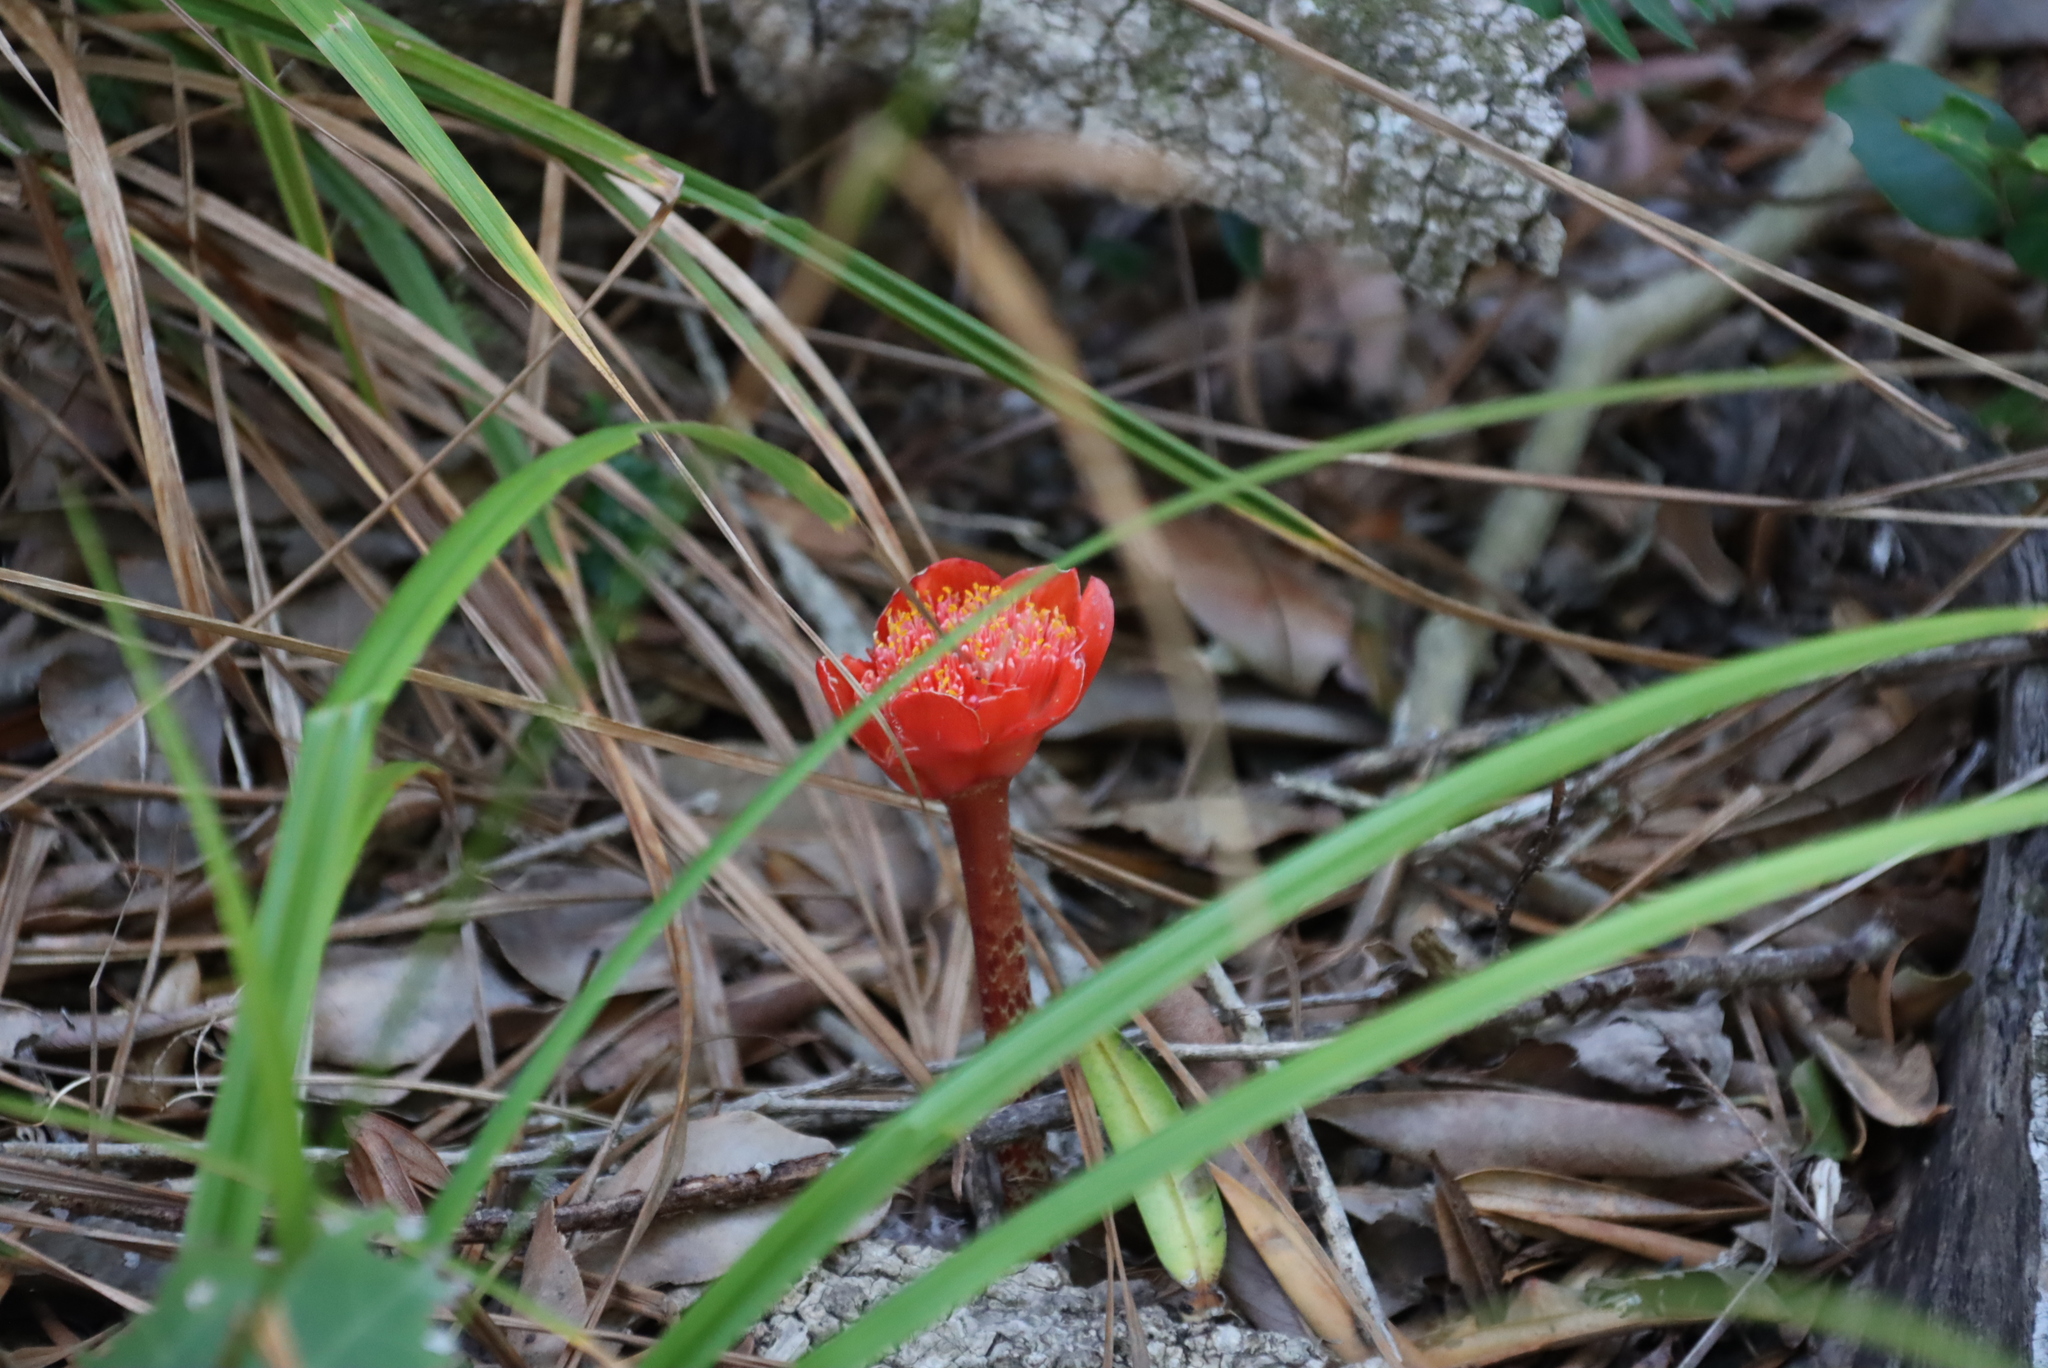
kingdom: Plantae
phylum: Tracheophyta
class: Liliopsida
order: Asparagales
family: Amaryllidaceae
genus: Haemanthus
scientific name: Haemanthus coccineus
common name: Cape-tulip
